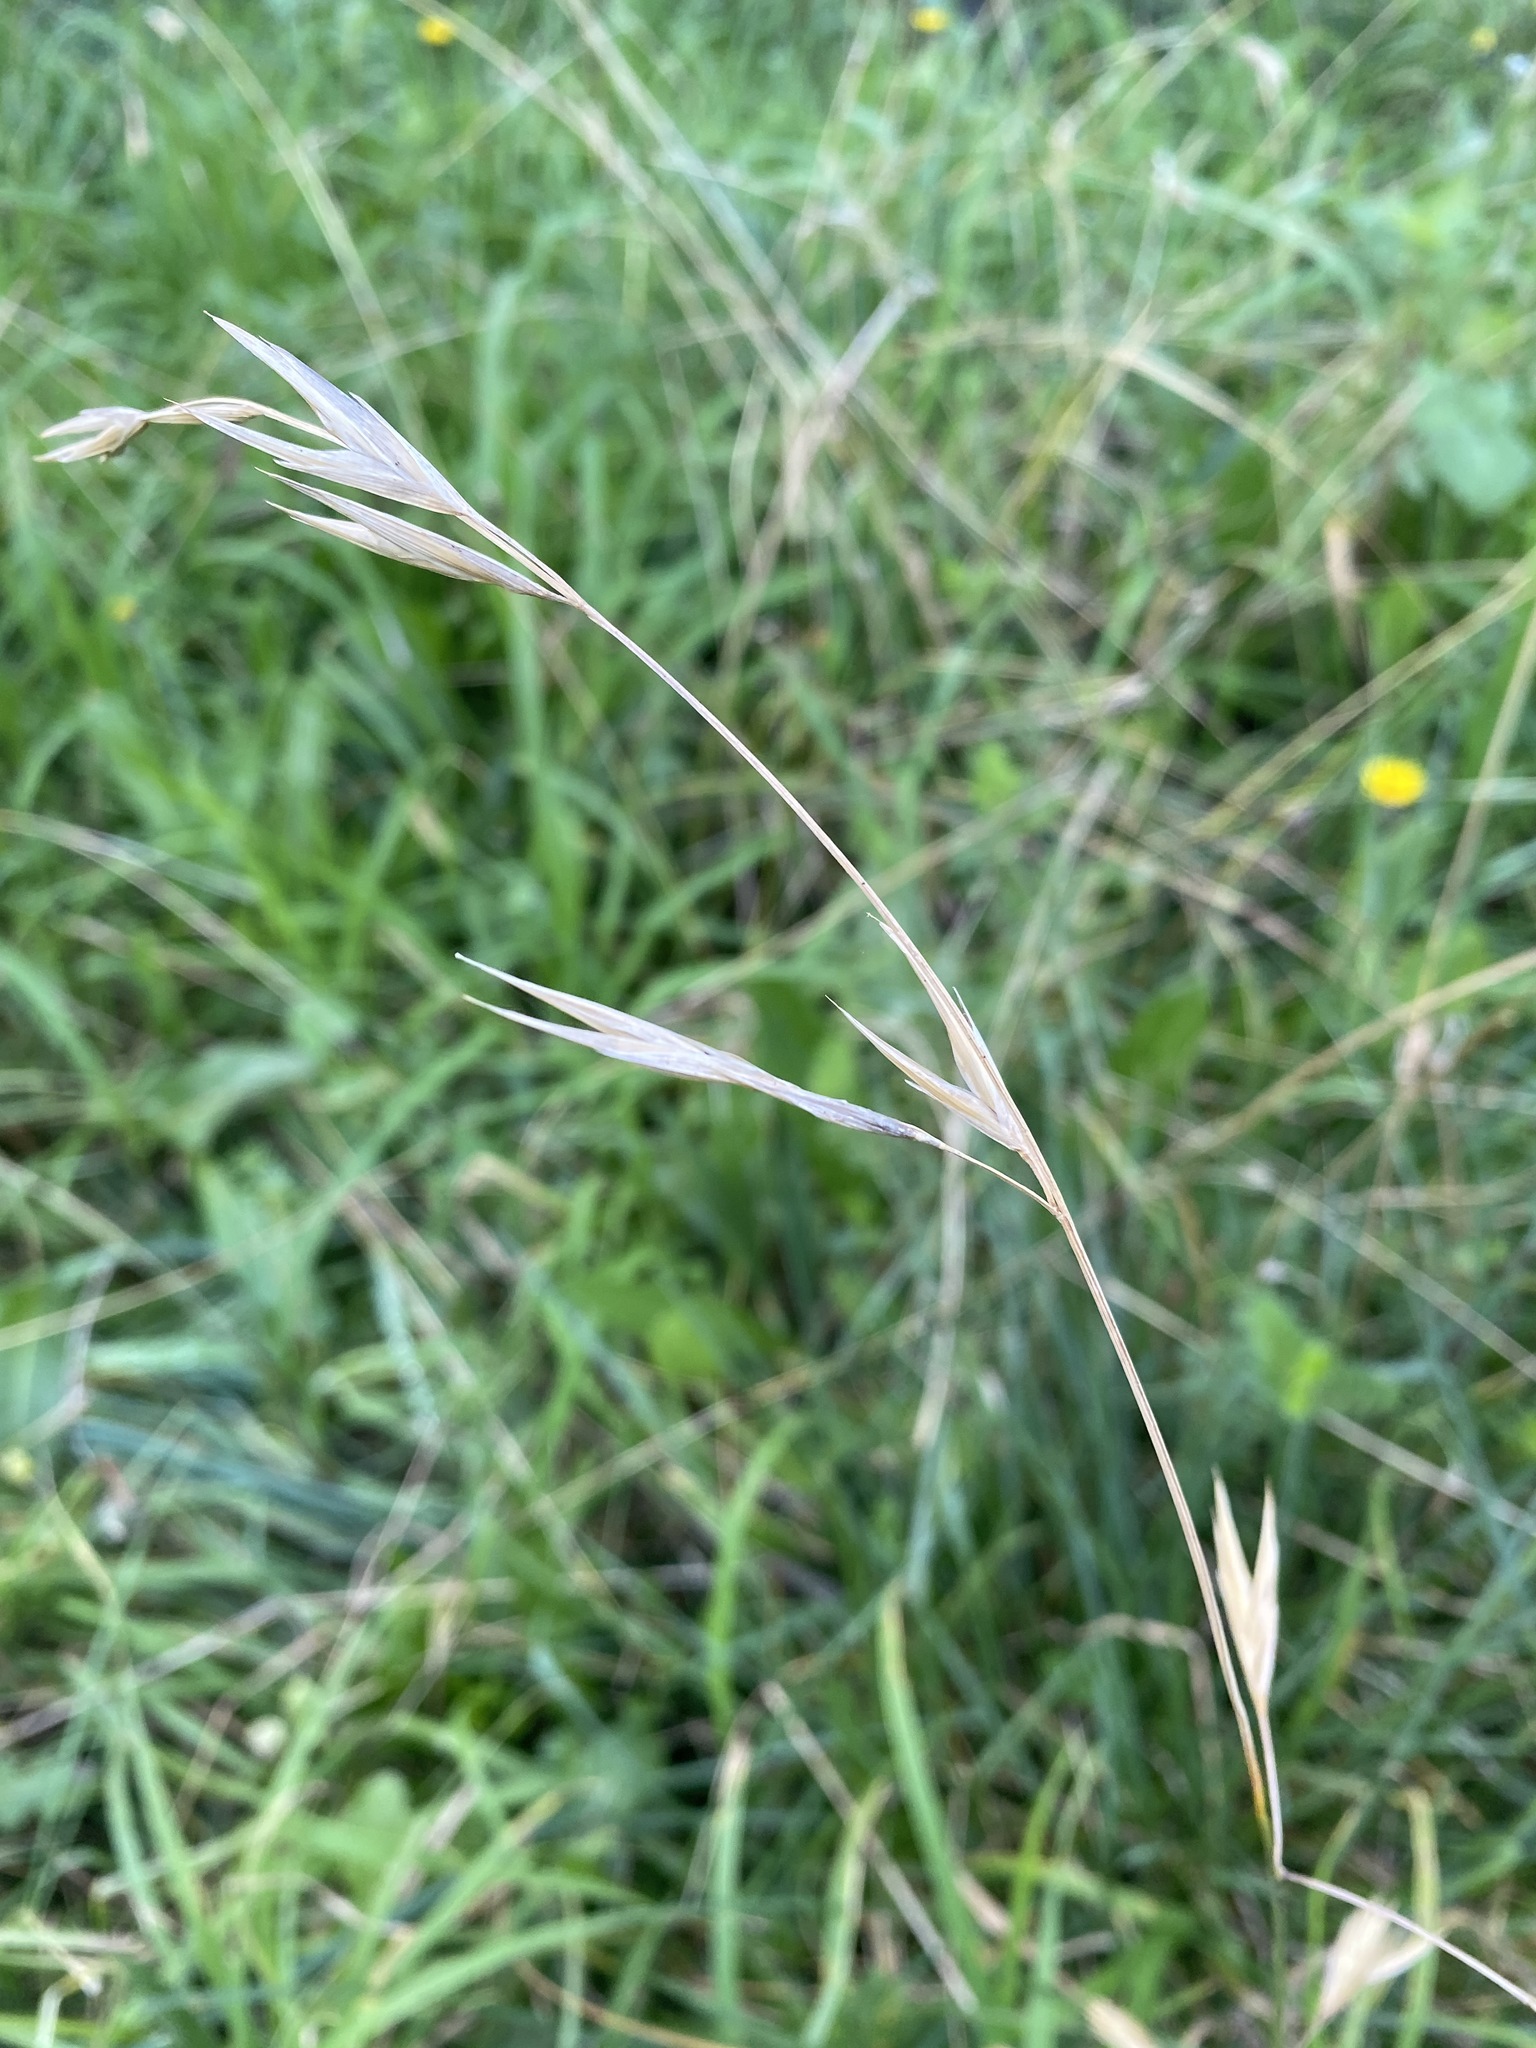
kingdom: Plantae
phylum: Tracheophyta
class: Liliopsida
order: Poales
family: Poaceae
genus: Bromus
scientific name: Bromus catharticus
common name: Rescuegrass
